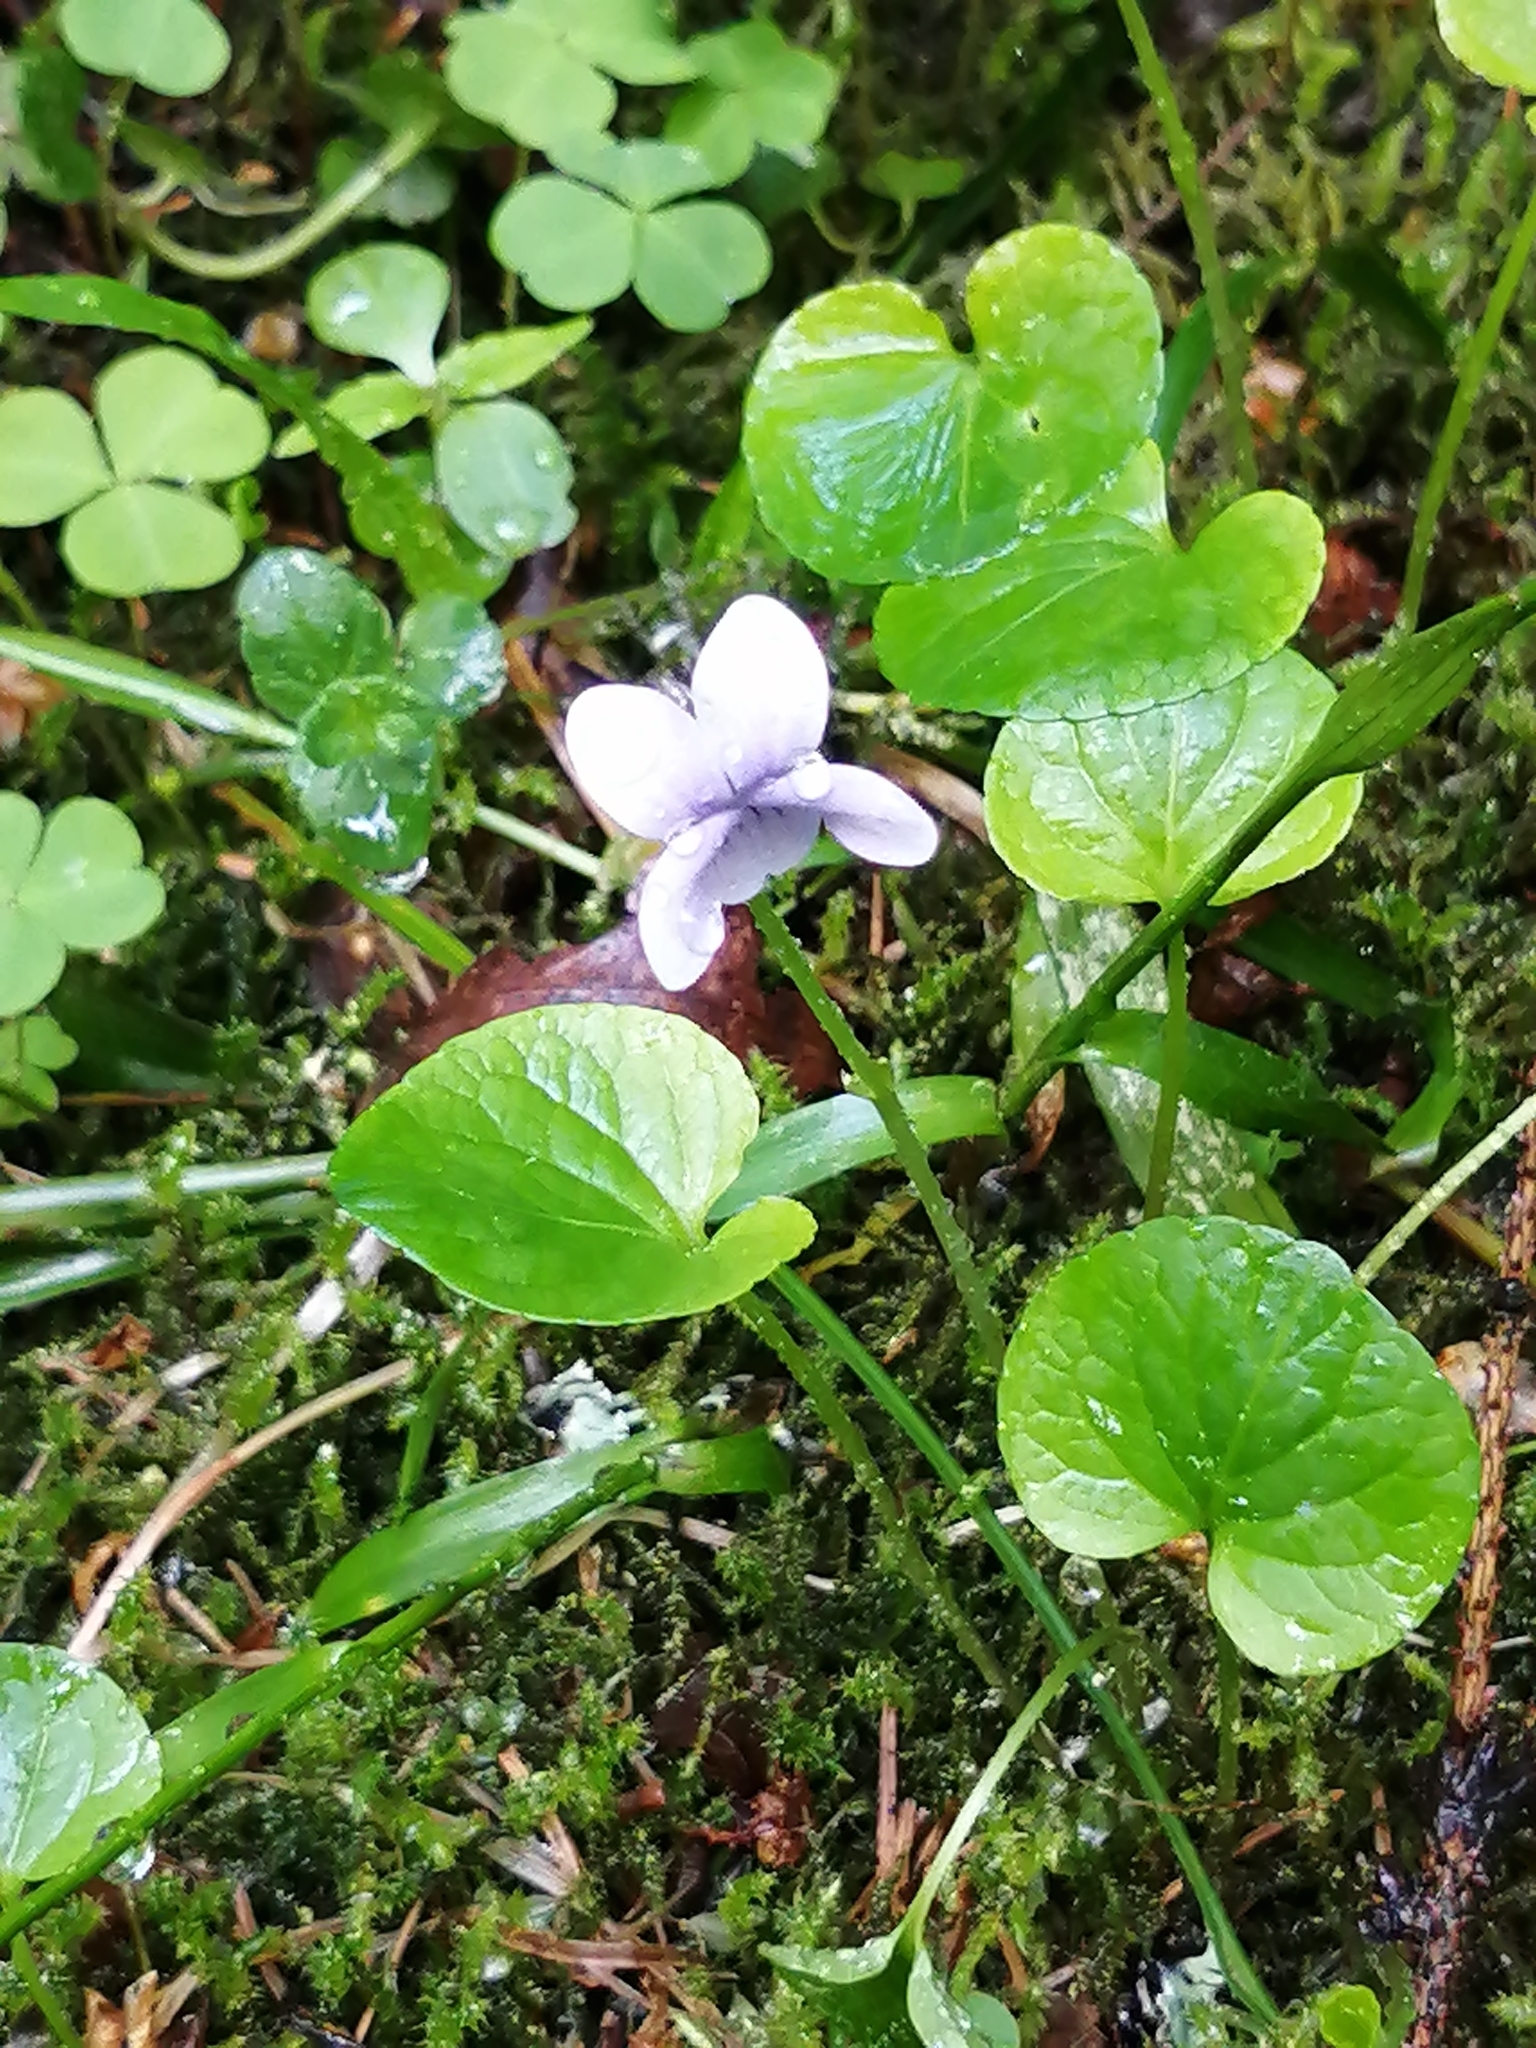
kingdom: Plantae
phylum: Tracheophyta
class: Magnoliopsida
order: Malpighiales
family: Violaceae
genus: Viola
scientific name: Viola palustris
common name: Marsh violet
